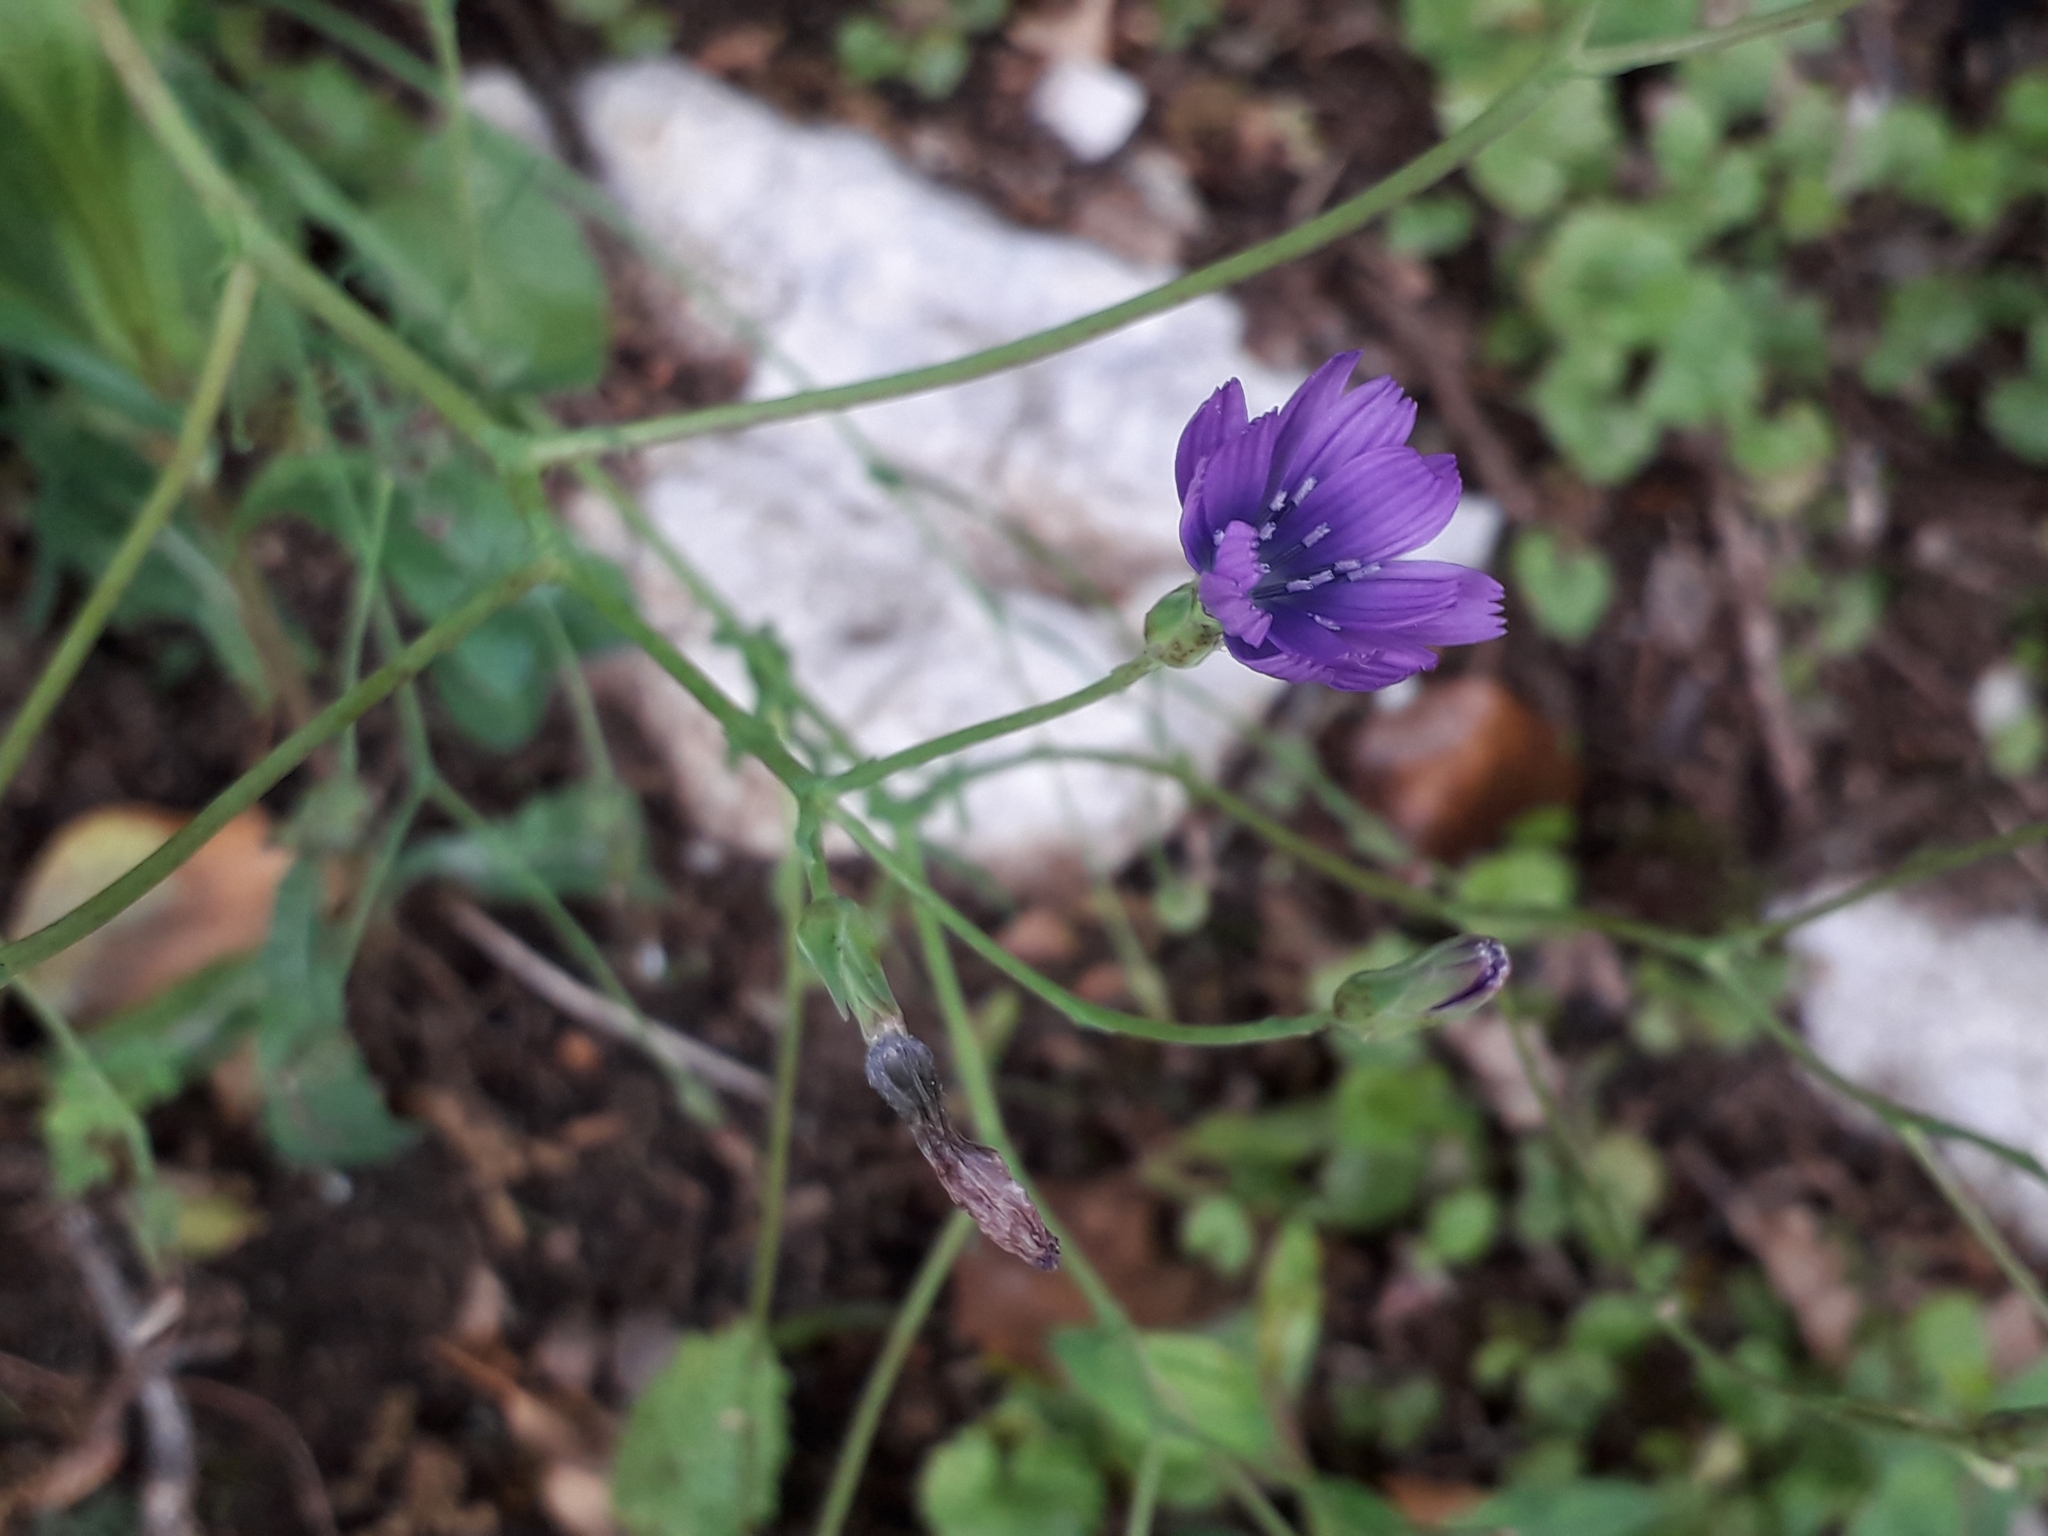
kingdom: Plantae
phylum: Tracheophyta
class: Magnoliopsida
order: Asterales
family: Asteraceae
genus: Lactuca
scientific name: Lactuca perennis
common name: Mountain lettuce
